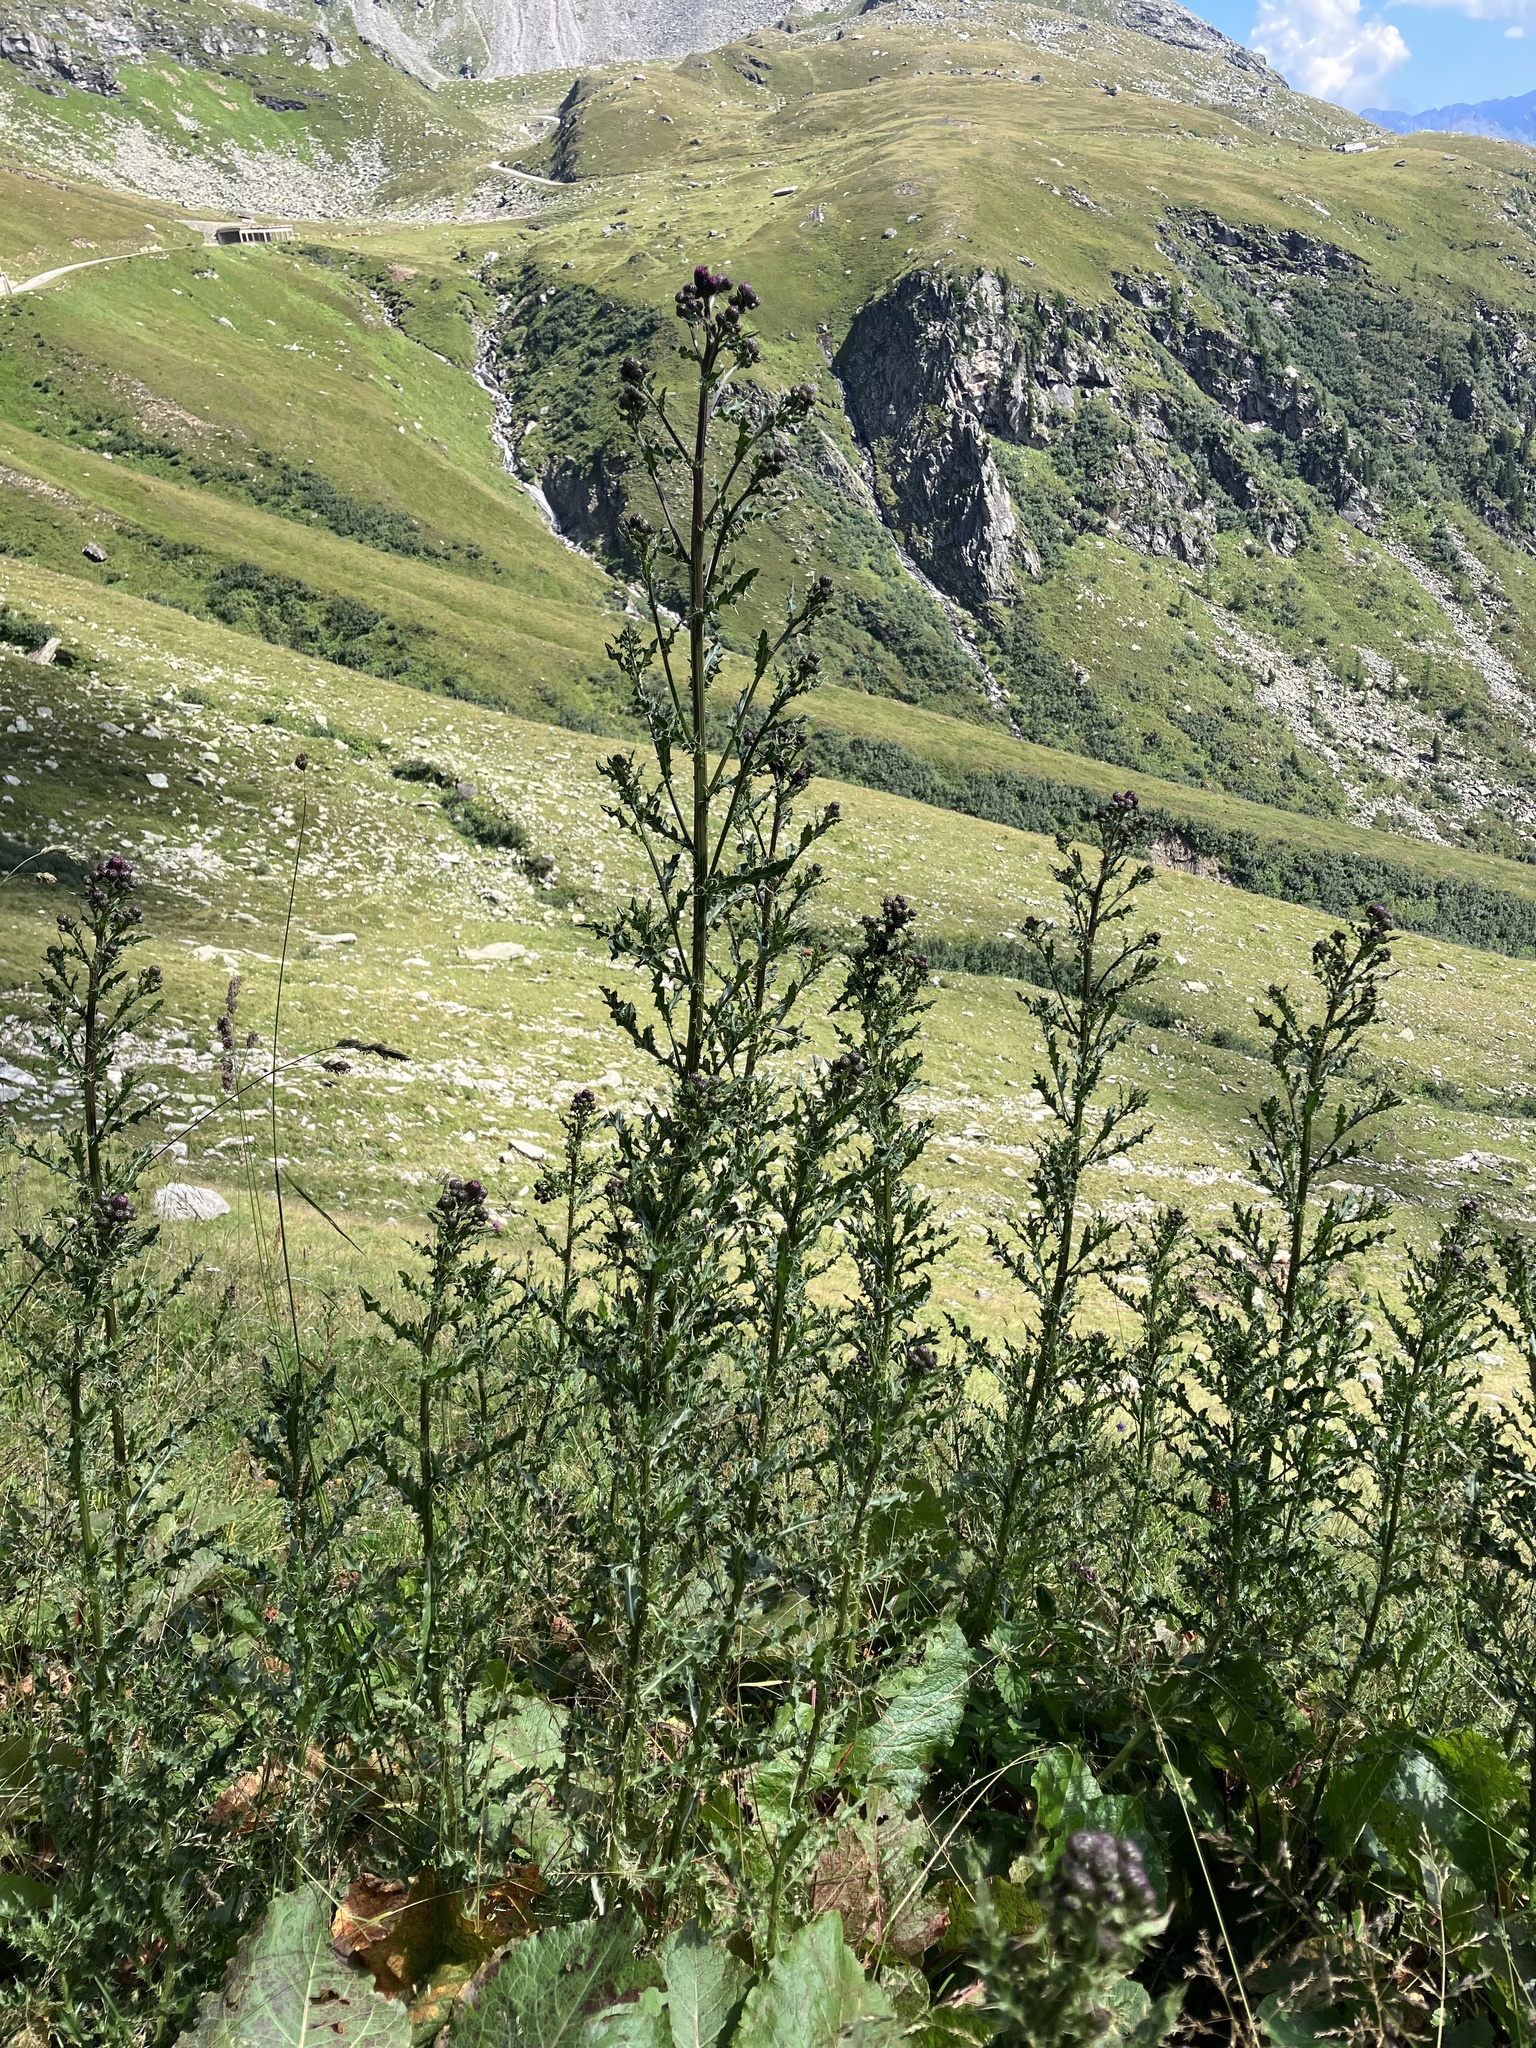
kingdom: Plantae
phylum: Tracheophyta
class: Magnoliopsida
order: Asterales
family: Asteraceae
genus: Cirsium
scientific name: Cirsium arvense
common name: Creeping thistle
